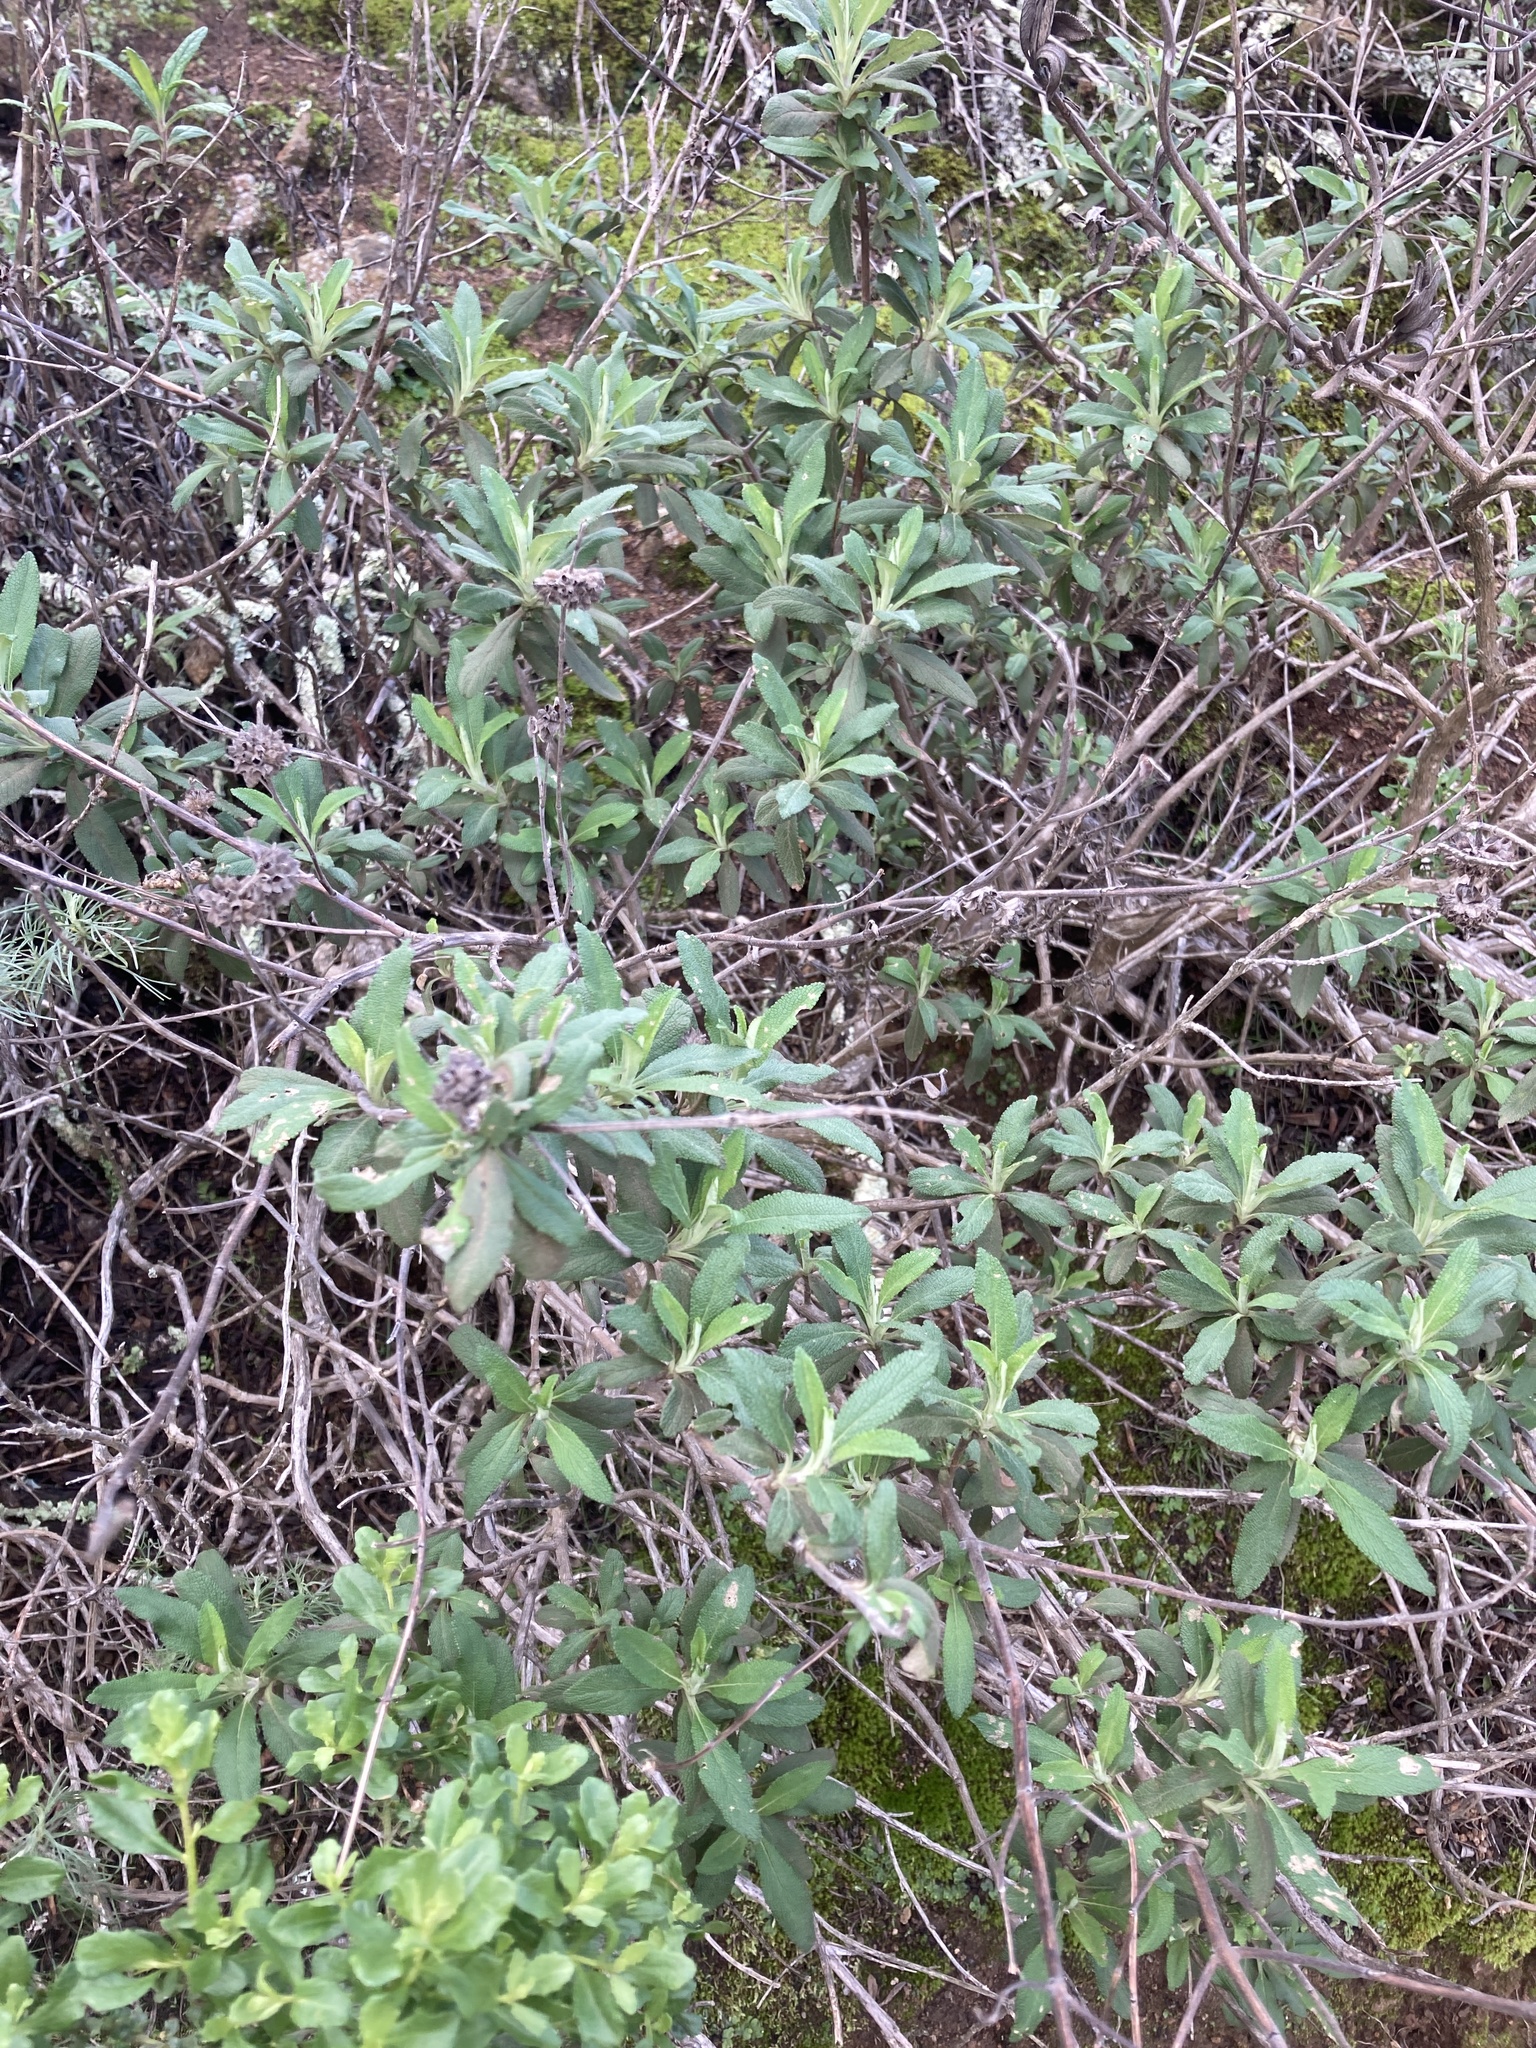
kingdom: Plantae
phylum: Tracheophyta
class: Magnoliopsida
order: Lamiales
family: Lamiaceae
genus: Salvia
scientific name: Salvia mellifera
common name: Black sage
